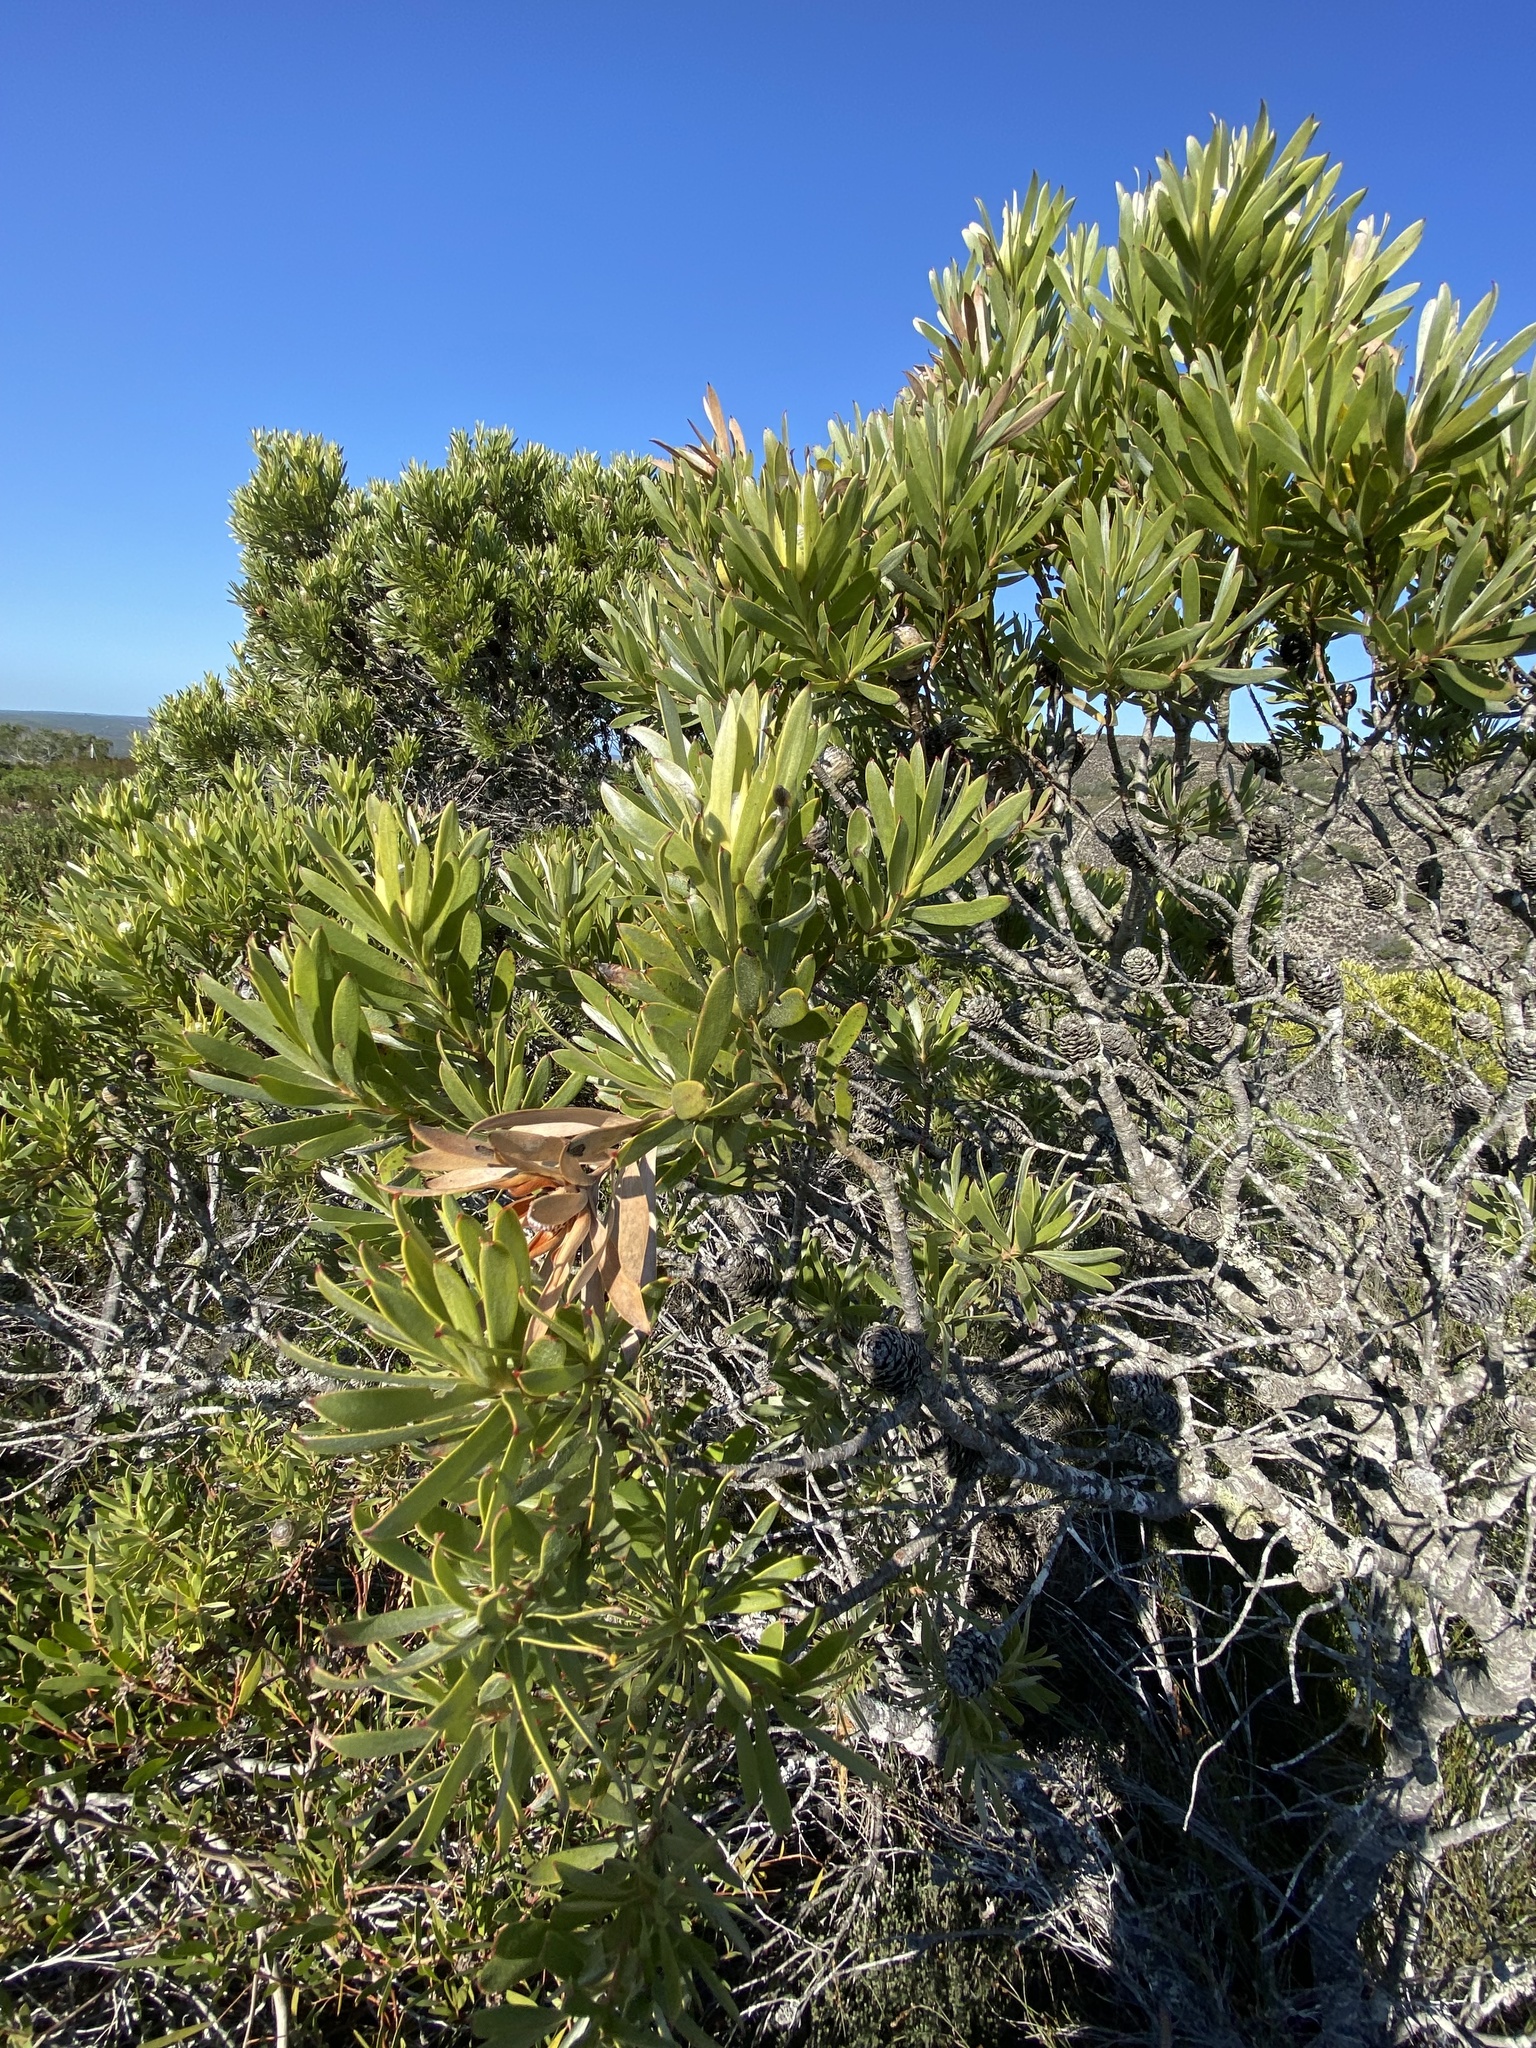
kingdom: Plantae
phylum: Tracheophyta
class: Magnoliopsida
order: Proteales
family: Proteaceae
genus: Leucadendron
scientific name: Leucadendron meridianum
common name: Limestone conebush
